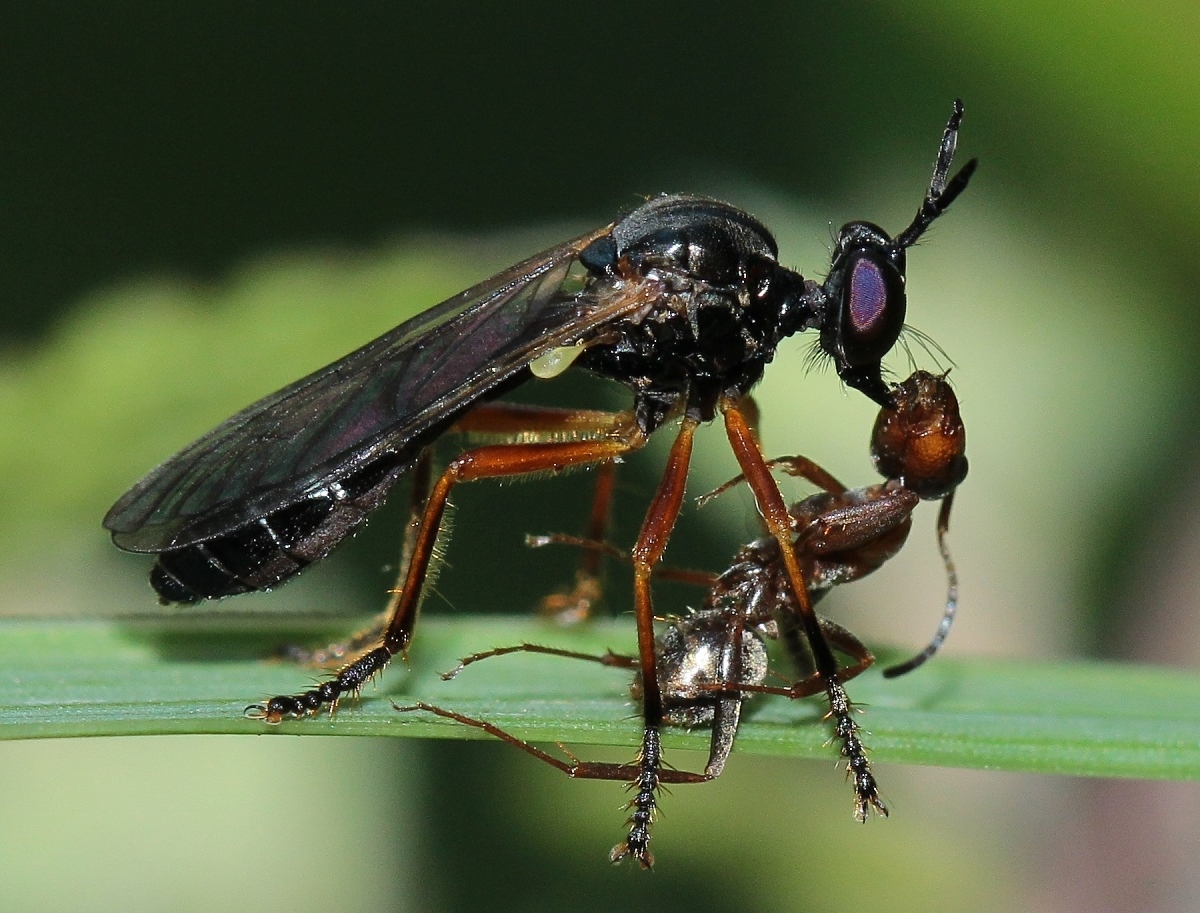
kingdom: Animalia
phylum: Arthropoda
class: Insecta
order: Diptera
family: Asilidae
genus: Dioctria
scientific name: Dioctria cothurnata
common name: Scarce red-legged robberfly
